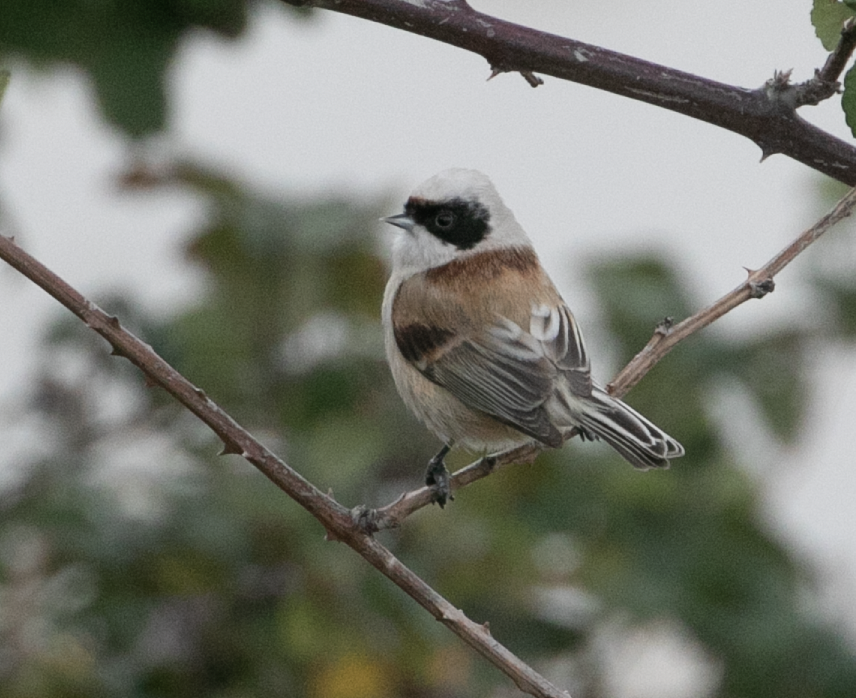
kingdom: Animalia
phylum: Chordata
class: Aves
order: Passeriformes
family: Remizidae
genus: Remiz
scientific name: Remiz pendulinus
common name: Eurasian penduline tit
